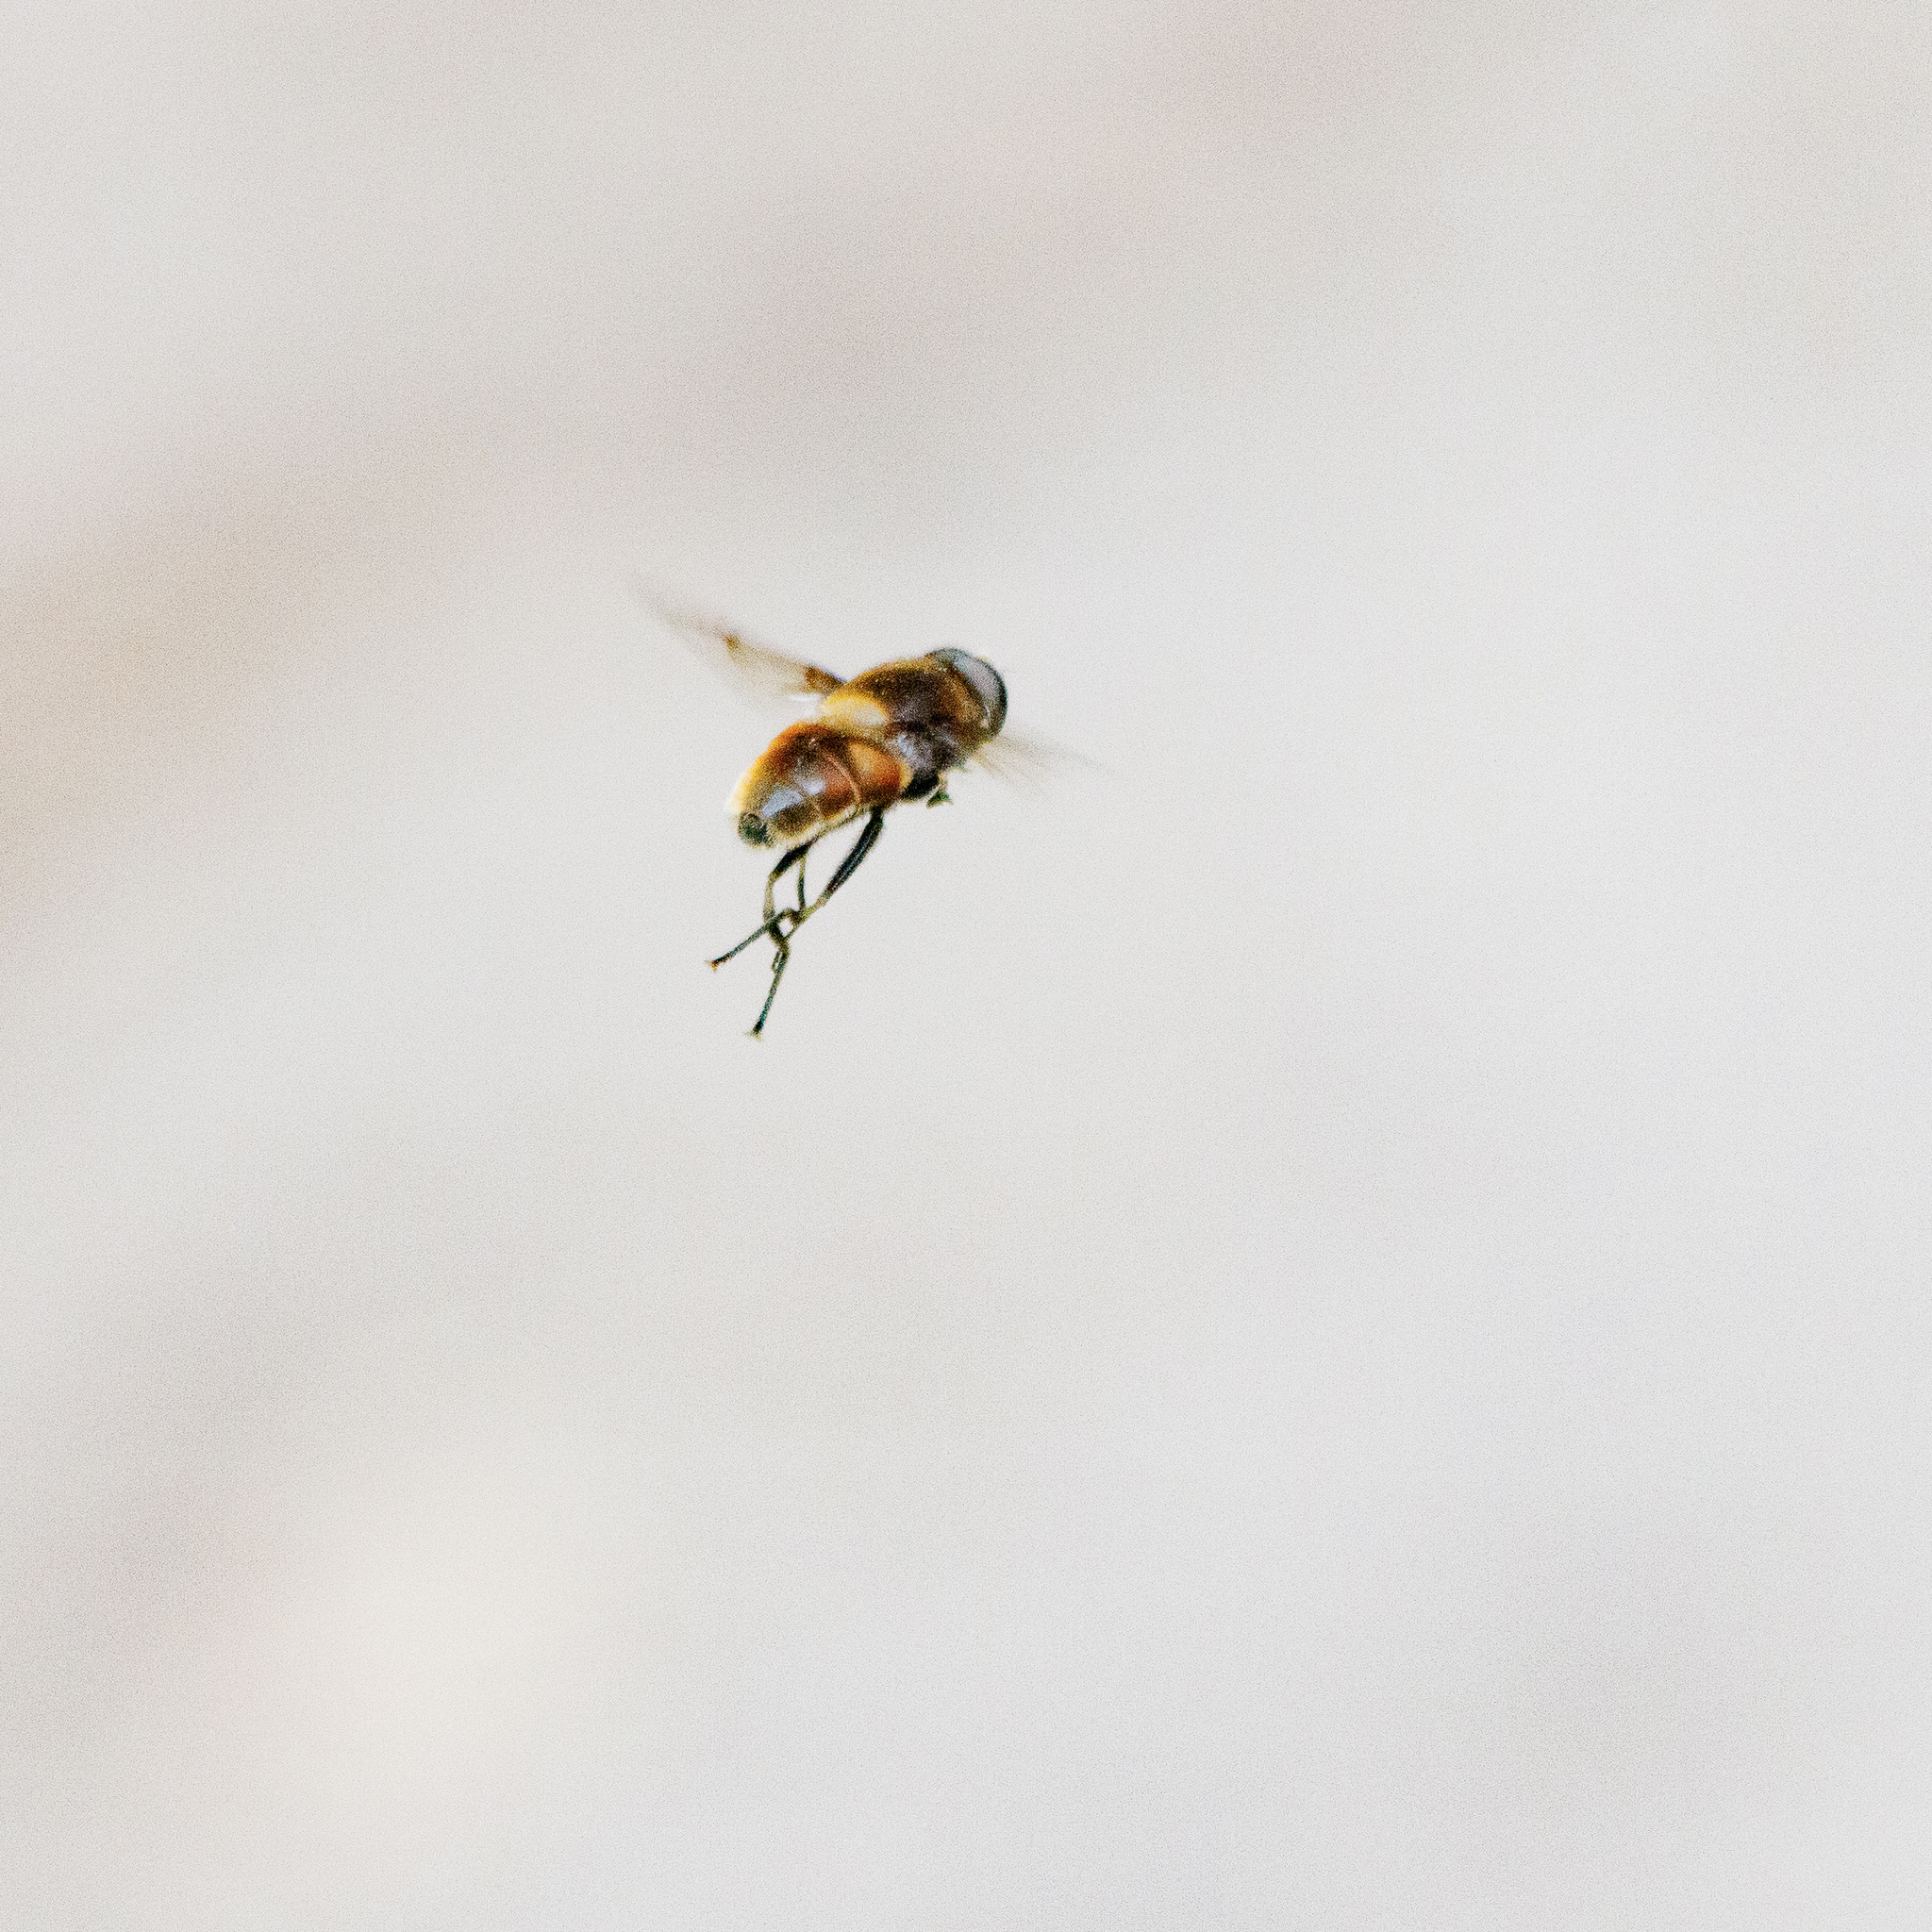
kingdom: Animalia
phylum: Arthropoda
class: Insecta
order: Diptera
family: Syrphidae
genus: Eristalis
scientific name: Eristalis intricaria
